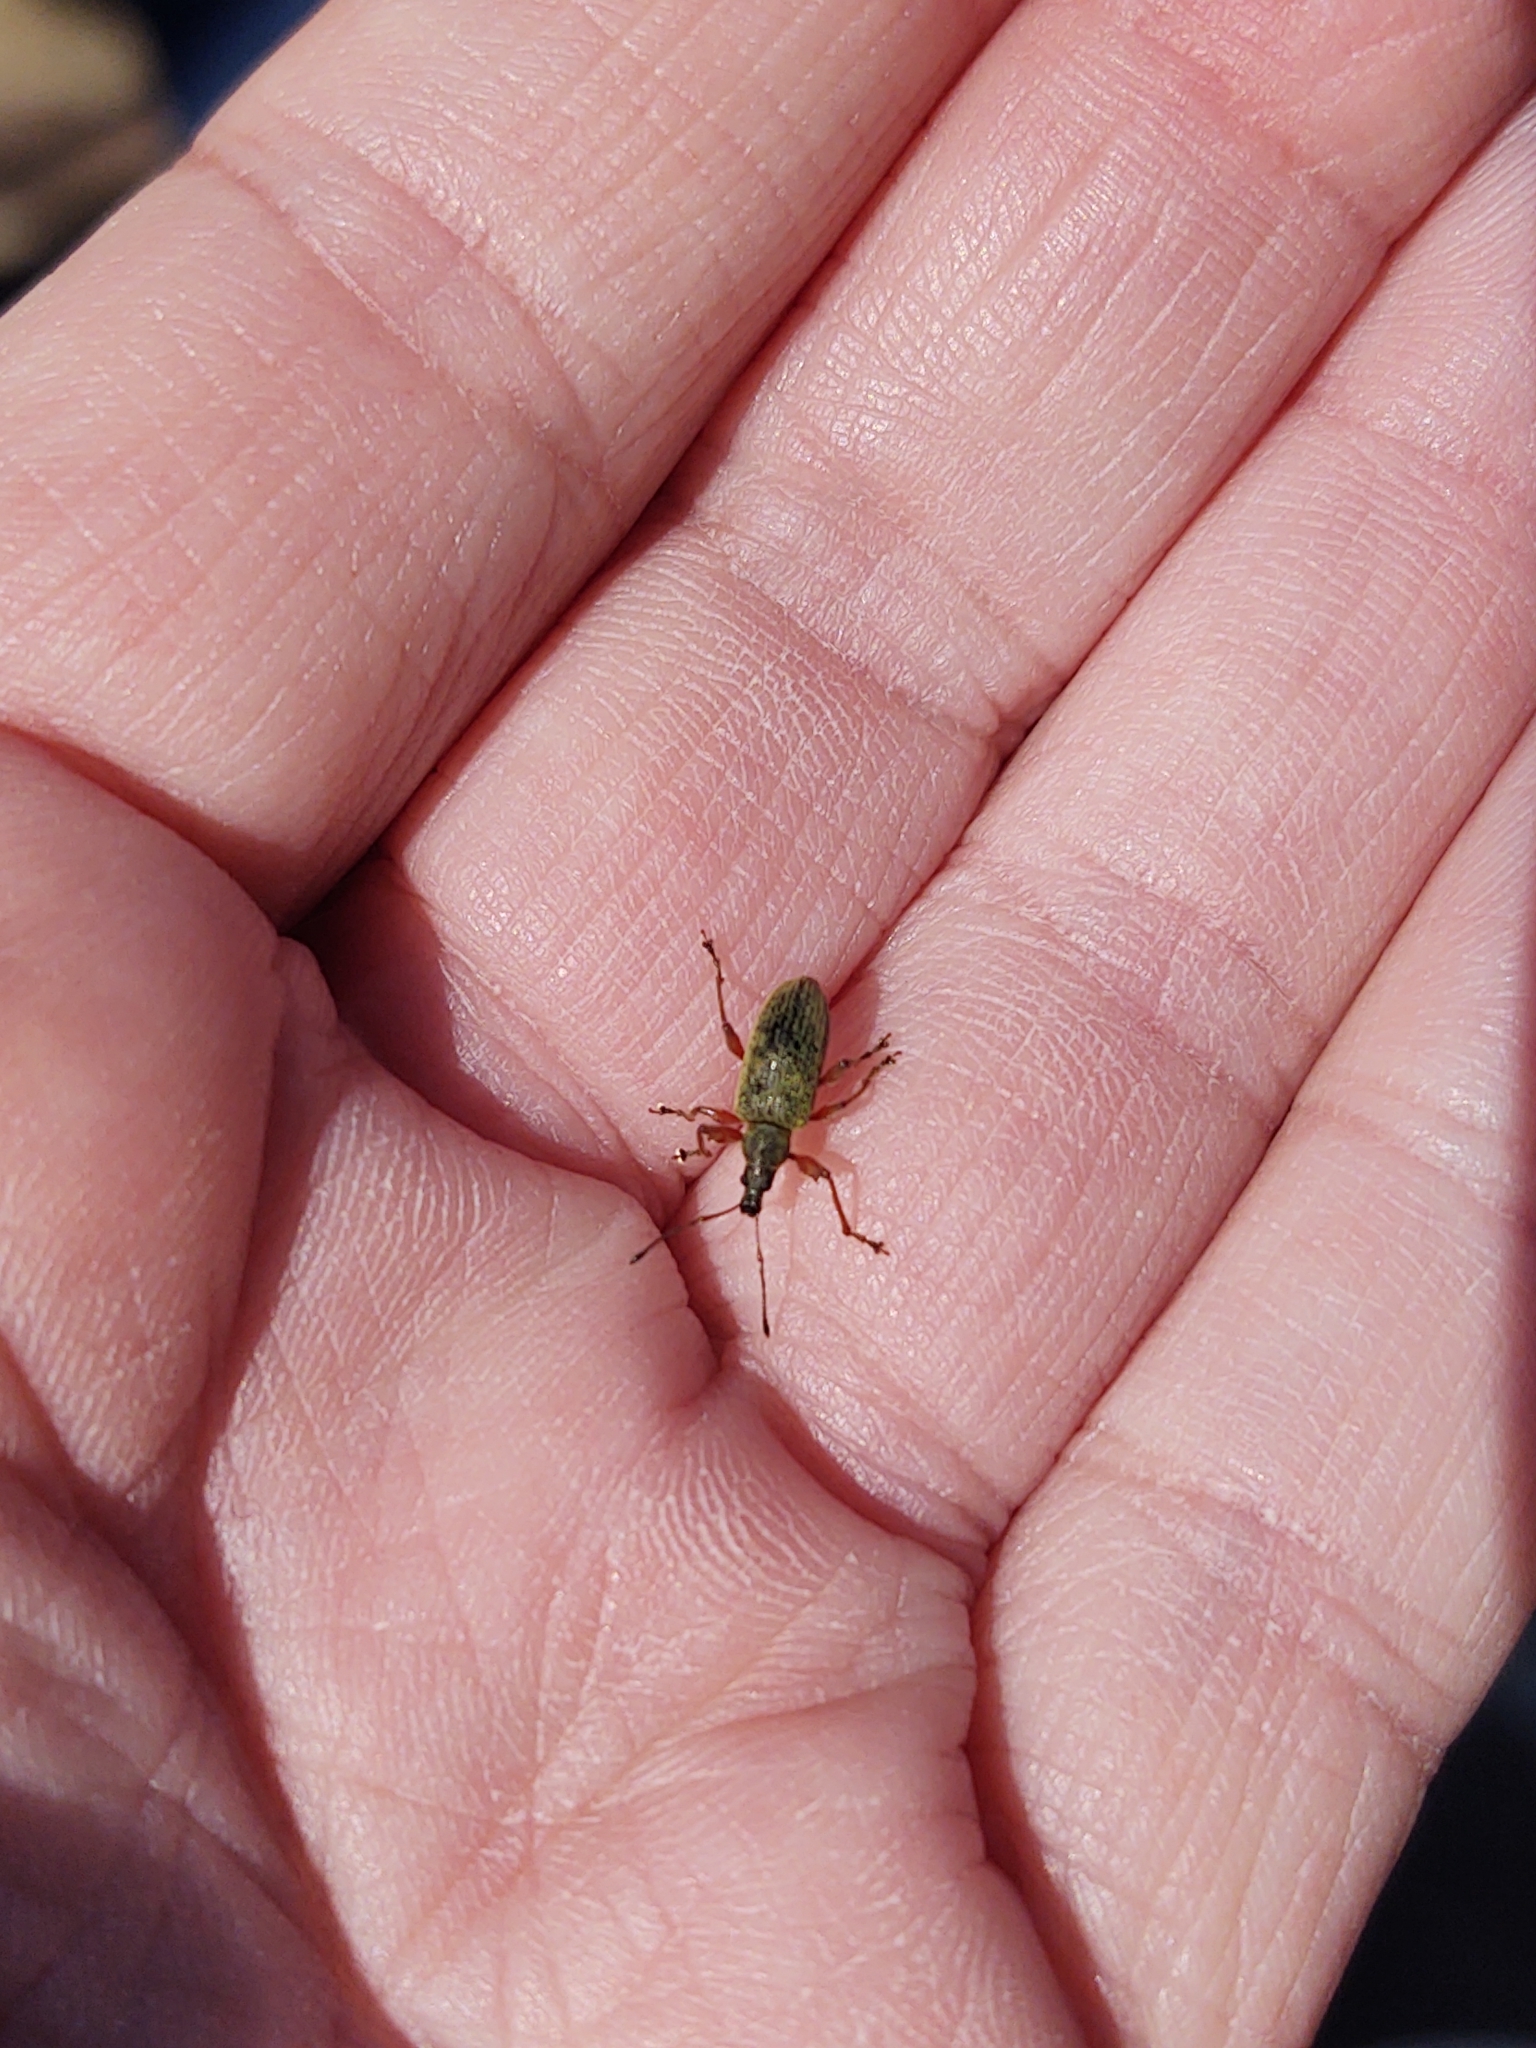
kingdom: Animalia
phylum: Arthropoda
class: Insecta
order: Coleoptera
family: Curculionidae
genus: Phyllobius
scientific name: Phyllobius glaucus
